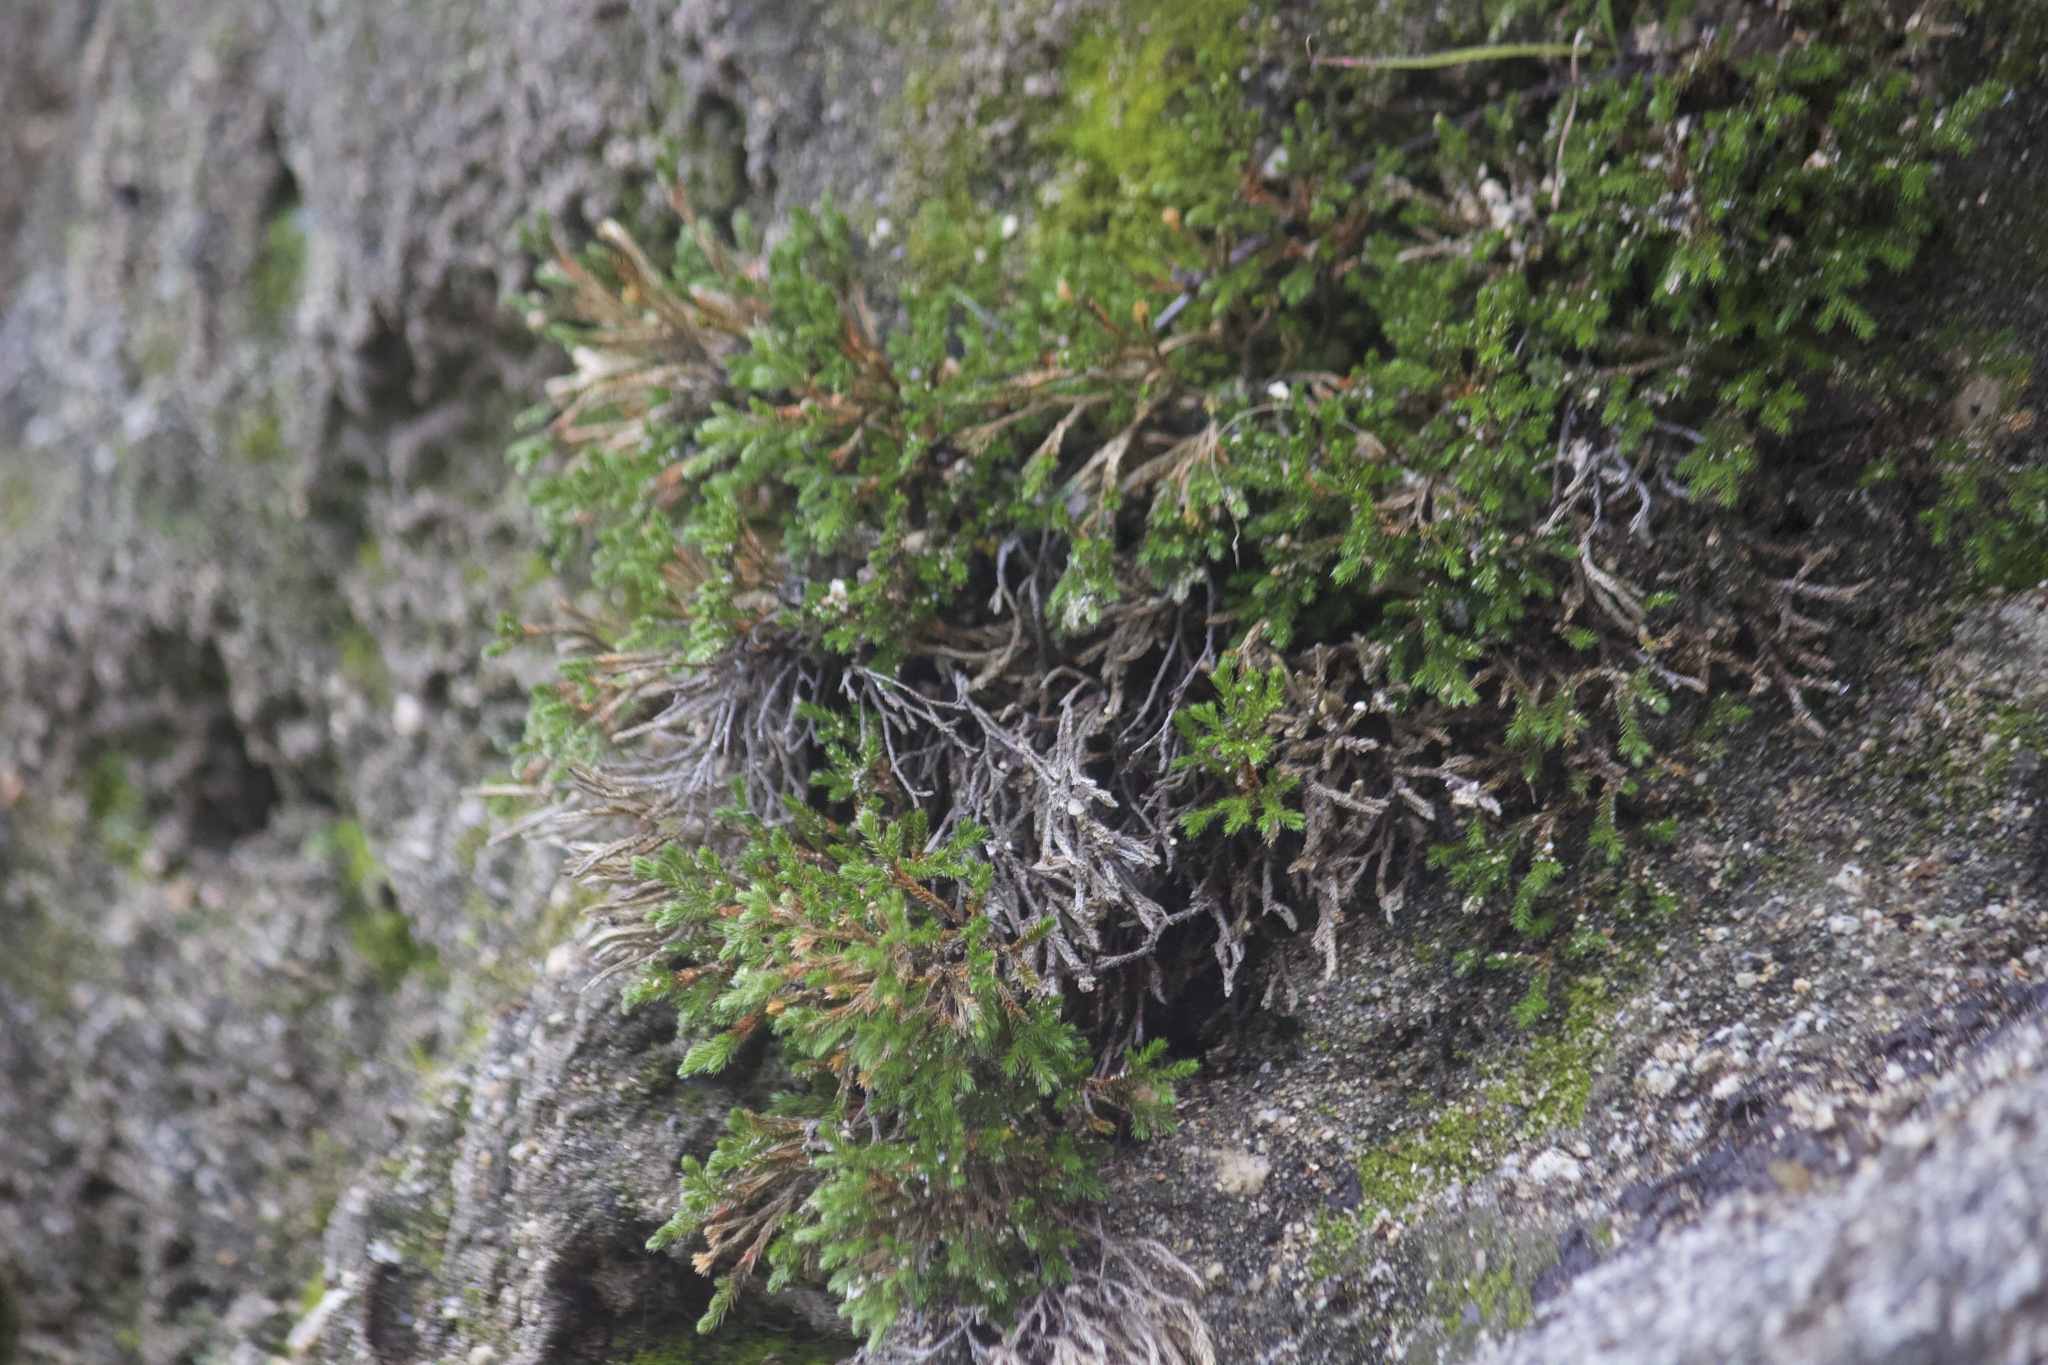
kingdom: Plantae
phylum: Tracheophyta
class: Lycopodiopsida
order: Selaginellales
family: Selaginellaceae
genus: Selaginella
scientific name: Selaginella bigelovii
